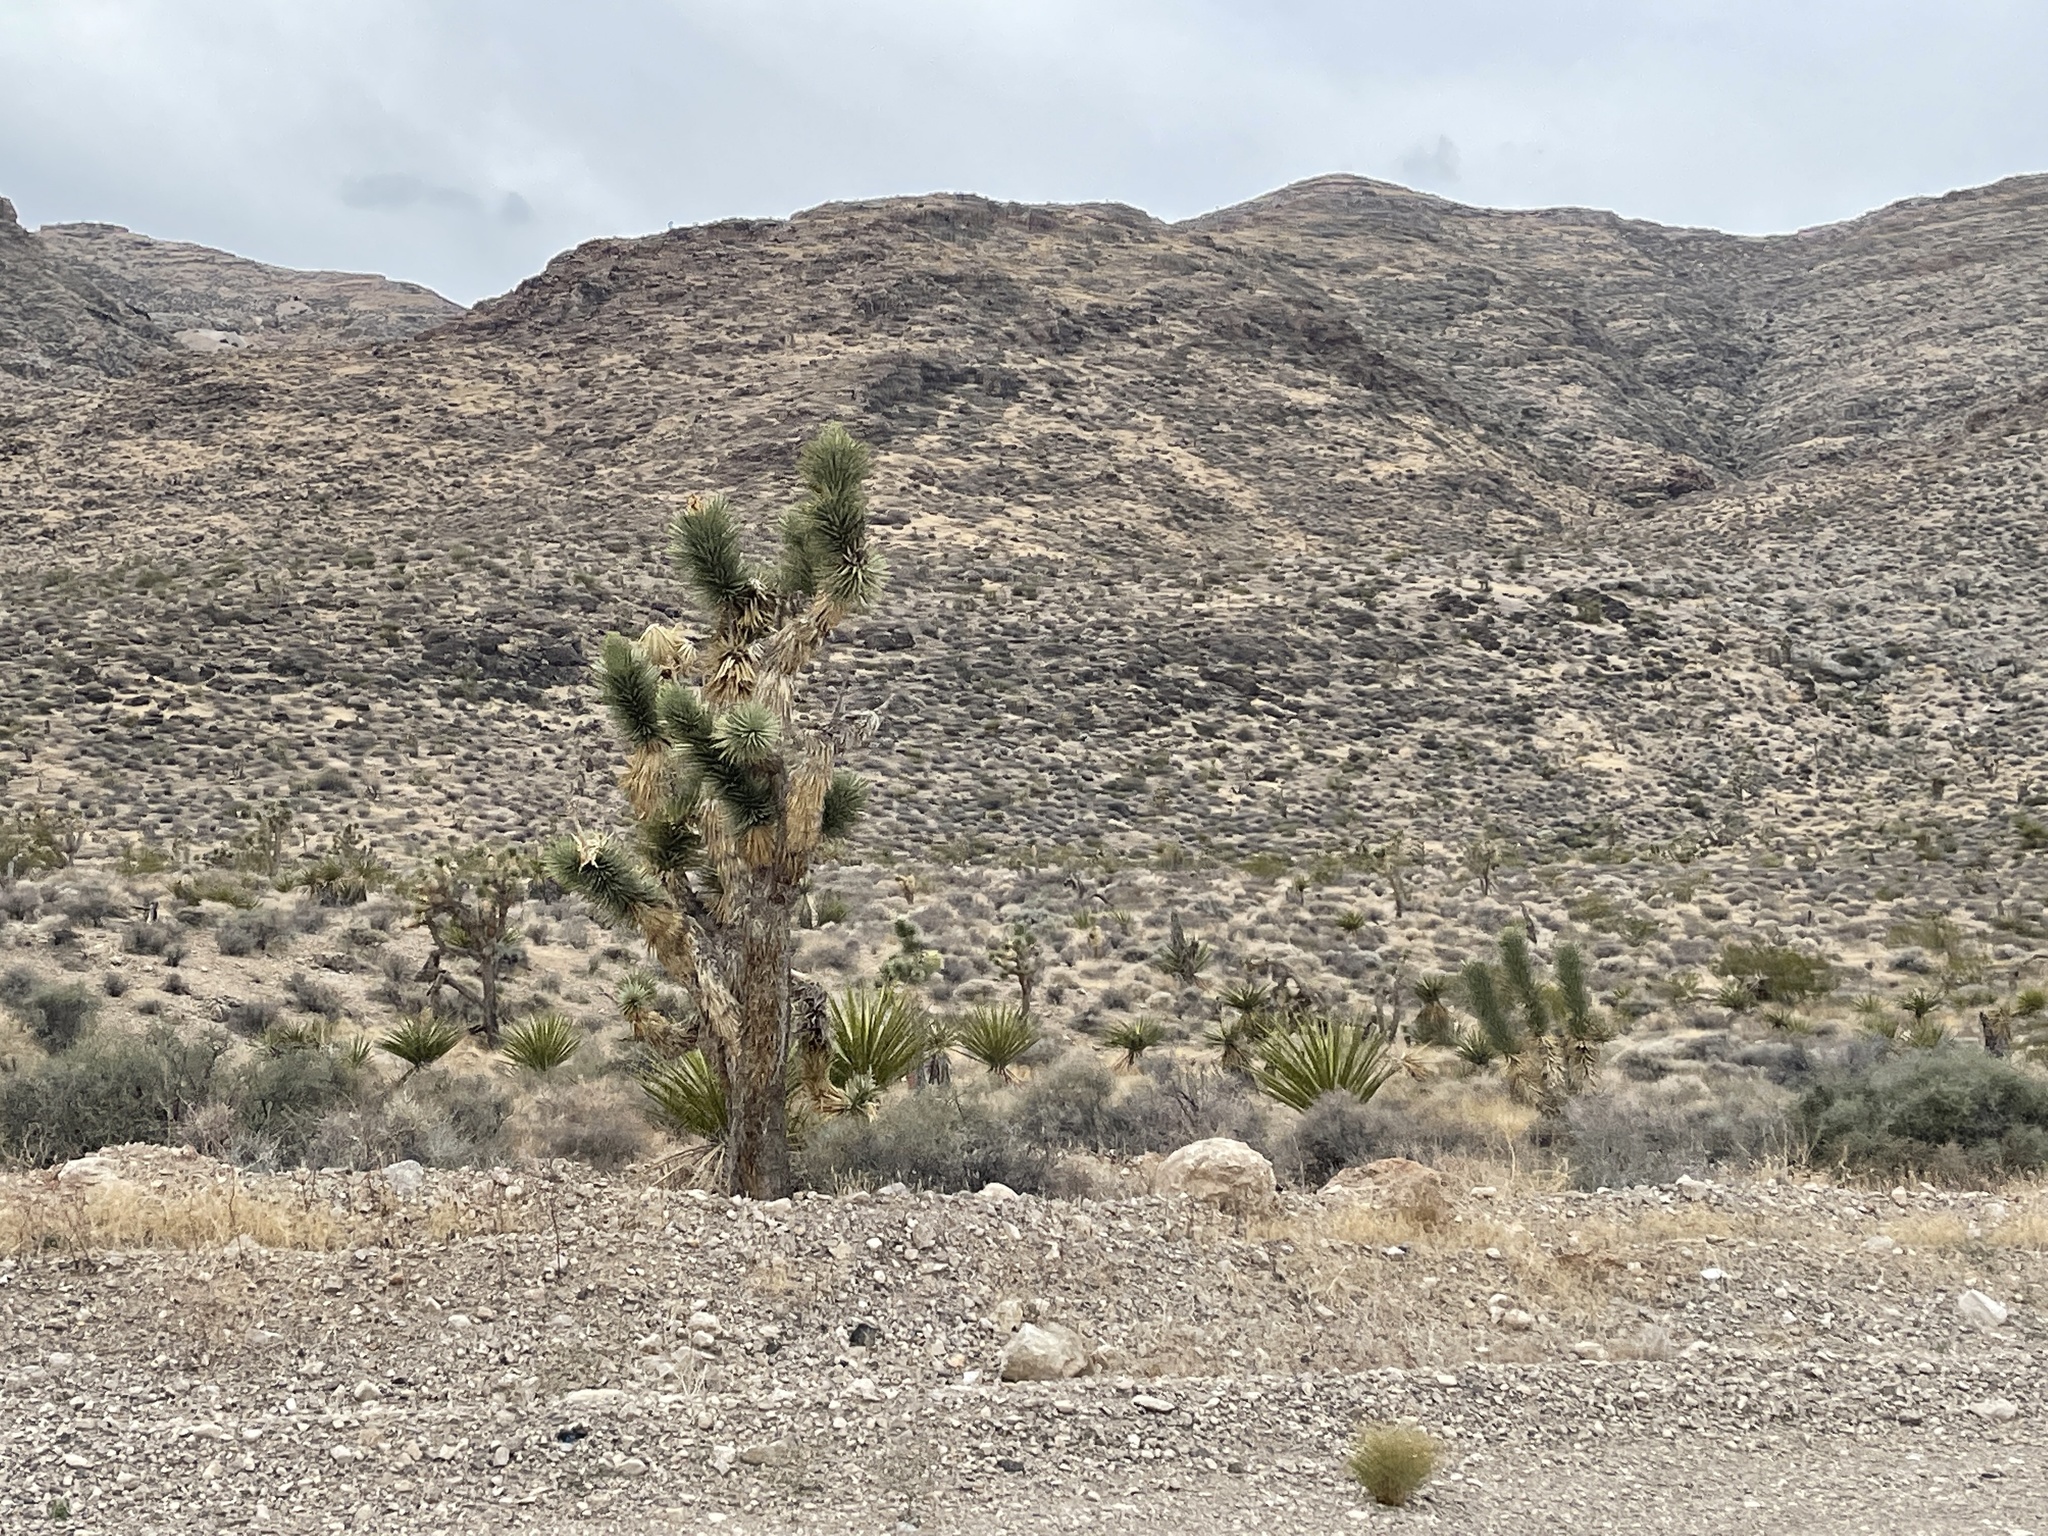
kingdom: Plantae
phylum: Tracheophyta
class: Liliopsida
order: Asparagales
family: Asparagaceae
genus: Yucca
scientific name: Yucca brevifolia
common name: Joshua tree
